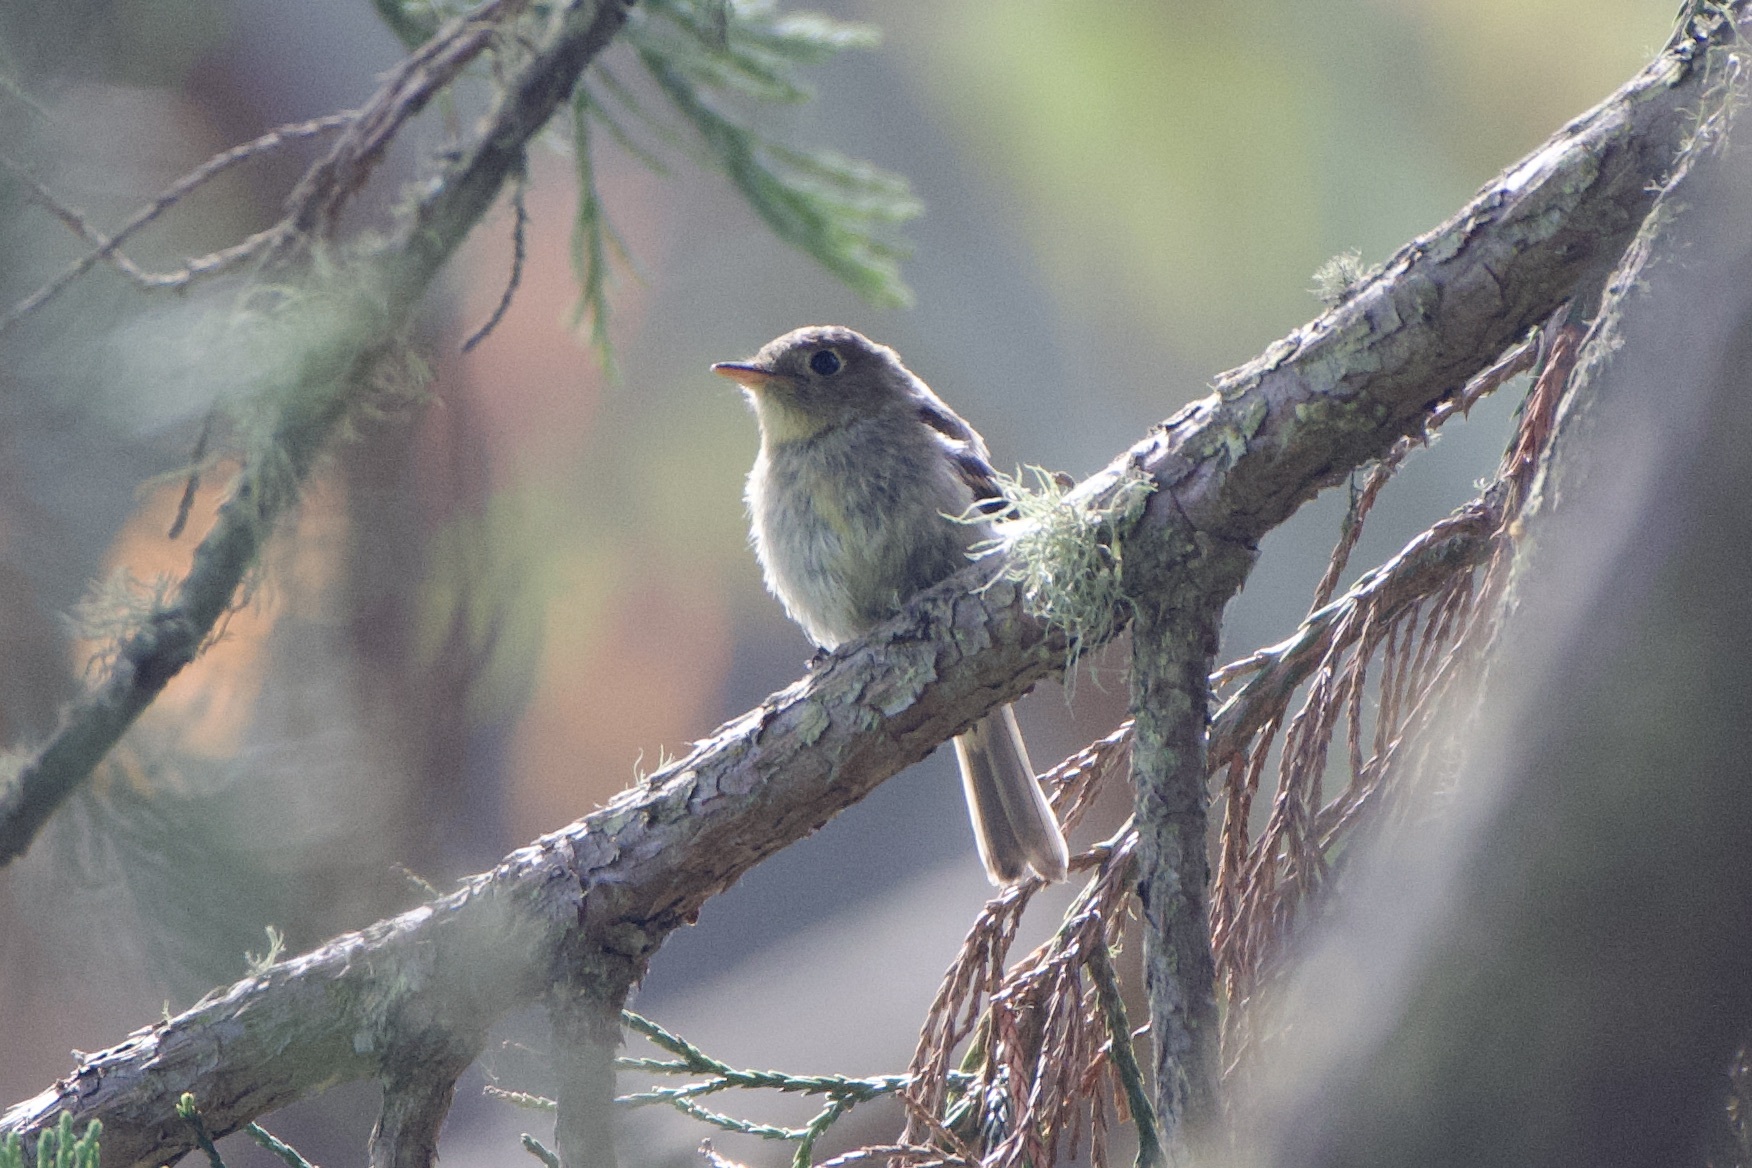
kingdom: Animalia
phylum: Chordata
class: Aves
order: Passeriformes
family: Tyrannidae
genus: Empidonax
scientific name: Empidonax difficilis
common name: Pacific-slope flycatcher
